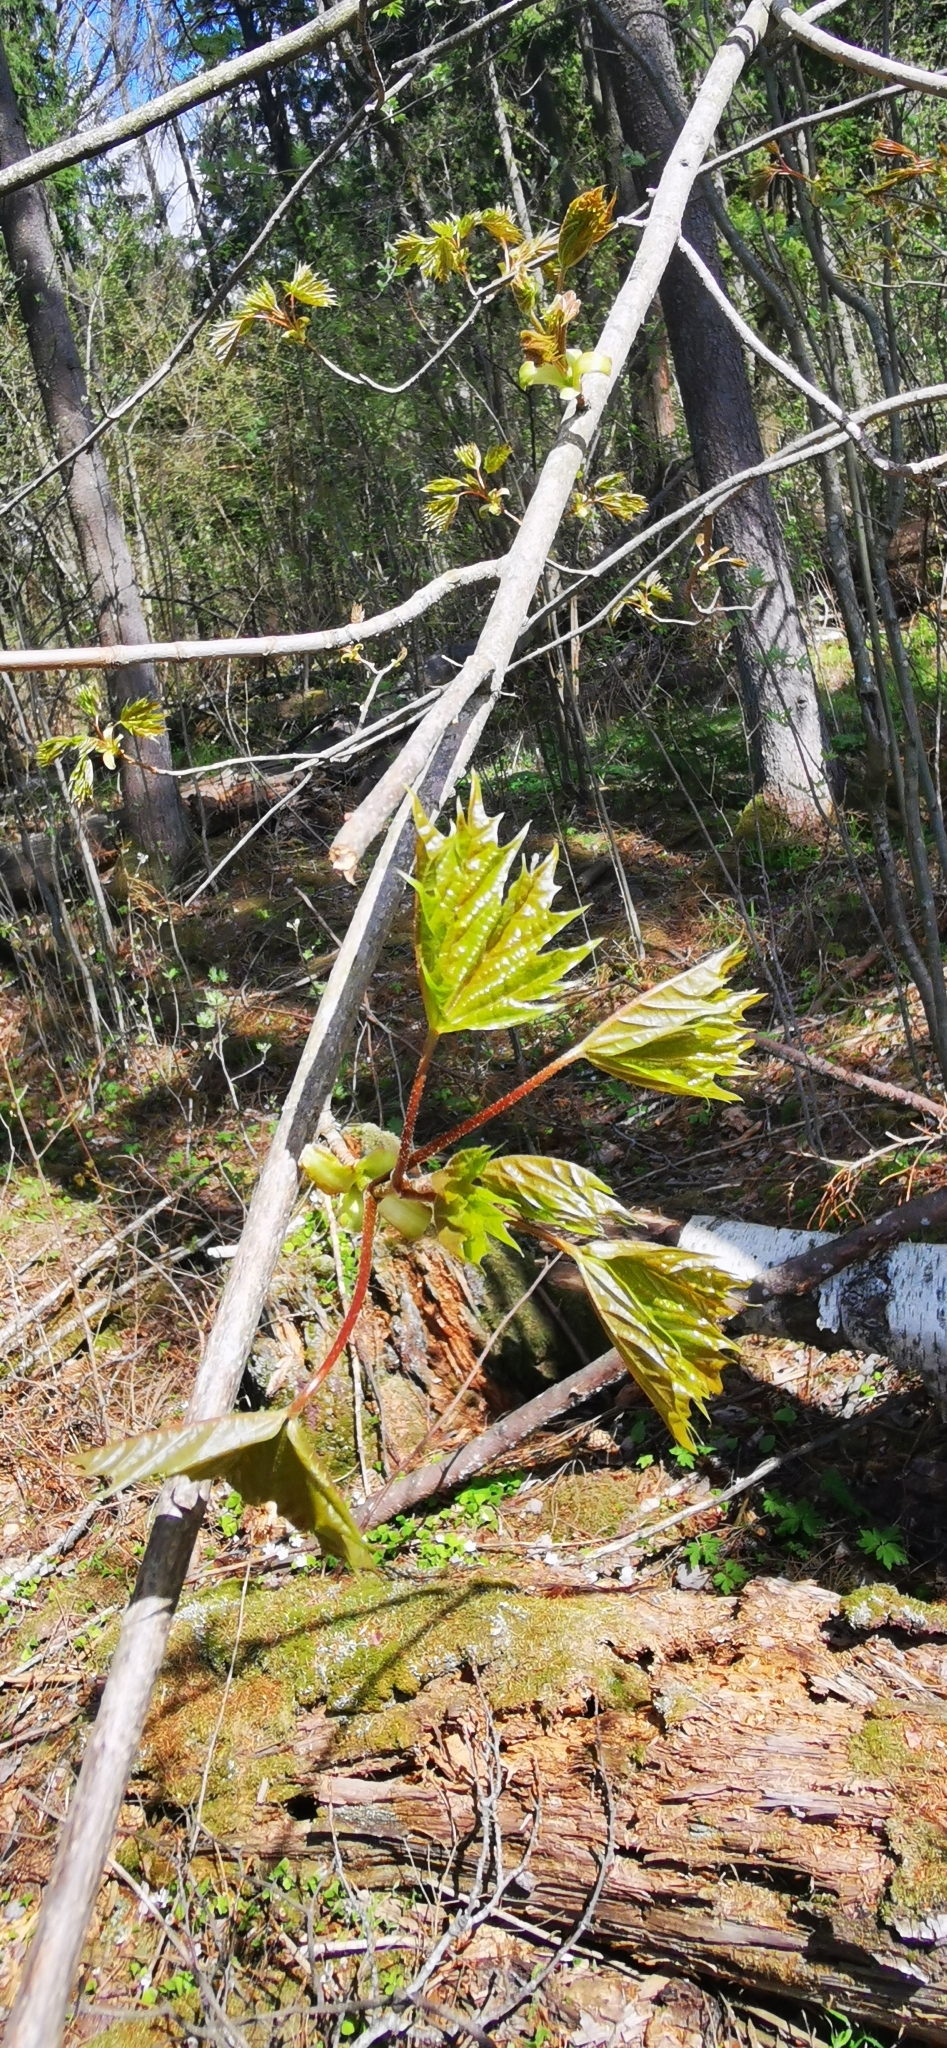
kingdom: Plantae
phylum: Tracheophyta
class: Magnoliopsida
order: Sapindales
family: Sapindaceae
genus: Acer
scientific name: Acer platanoides
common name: Norway maple
